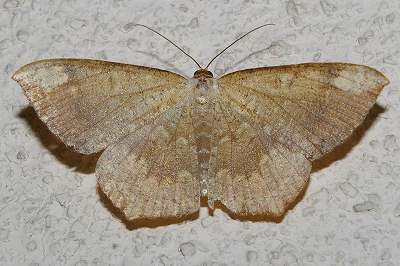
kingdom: Animalia
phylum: Arthropoda
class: Insecta
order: Lepidoptera
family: Geometridae
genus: Peratostega
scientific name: Peratostega deletaria
